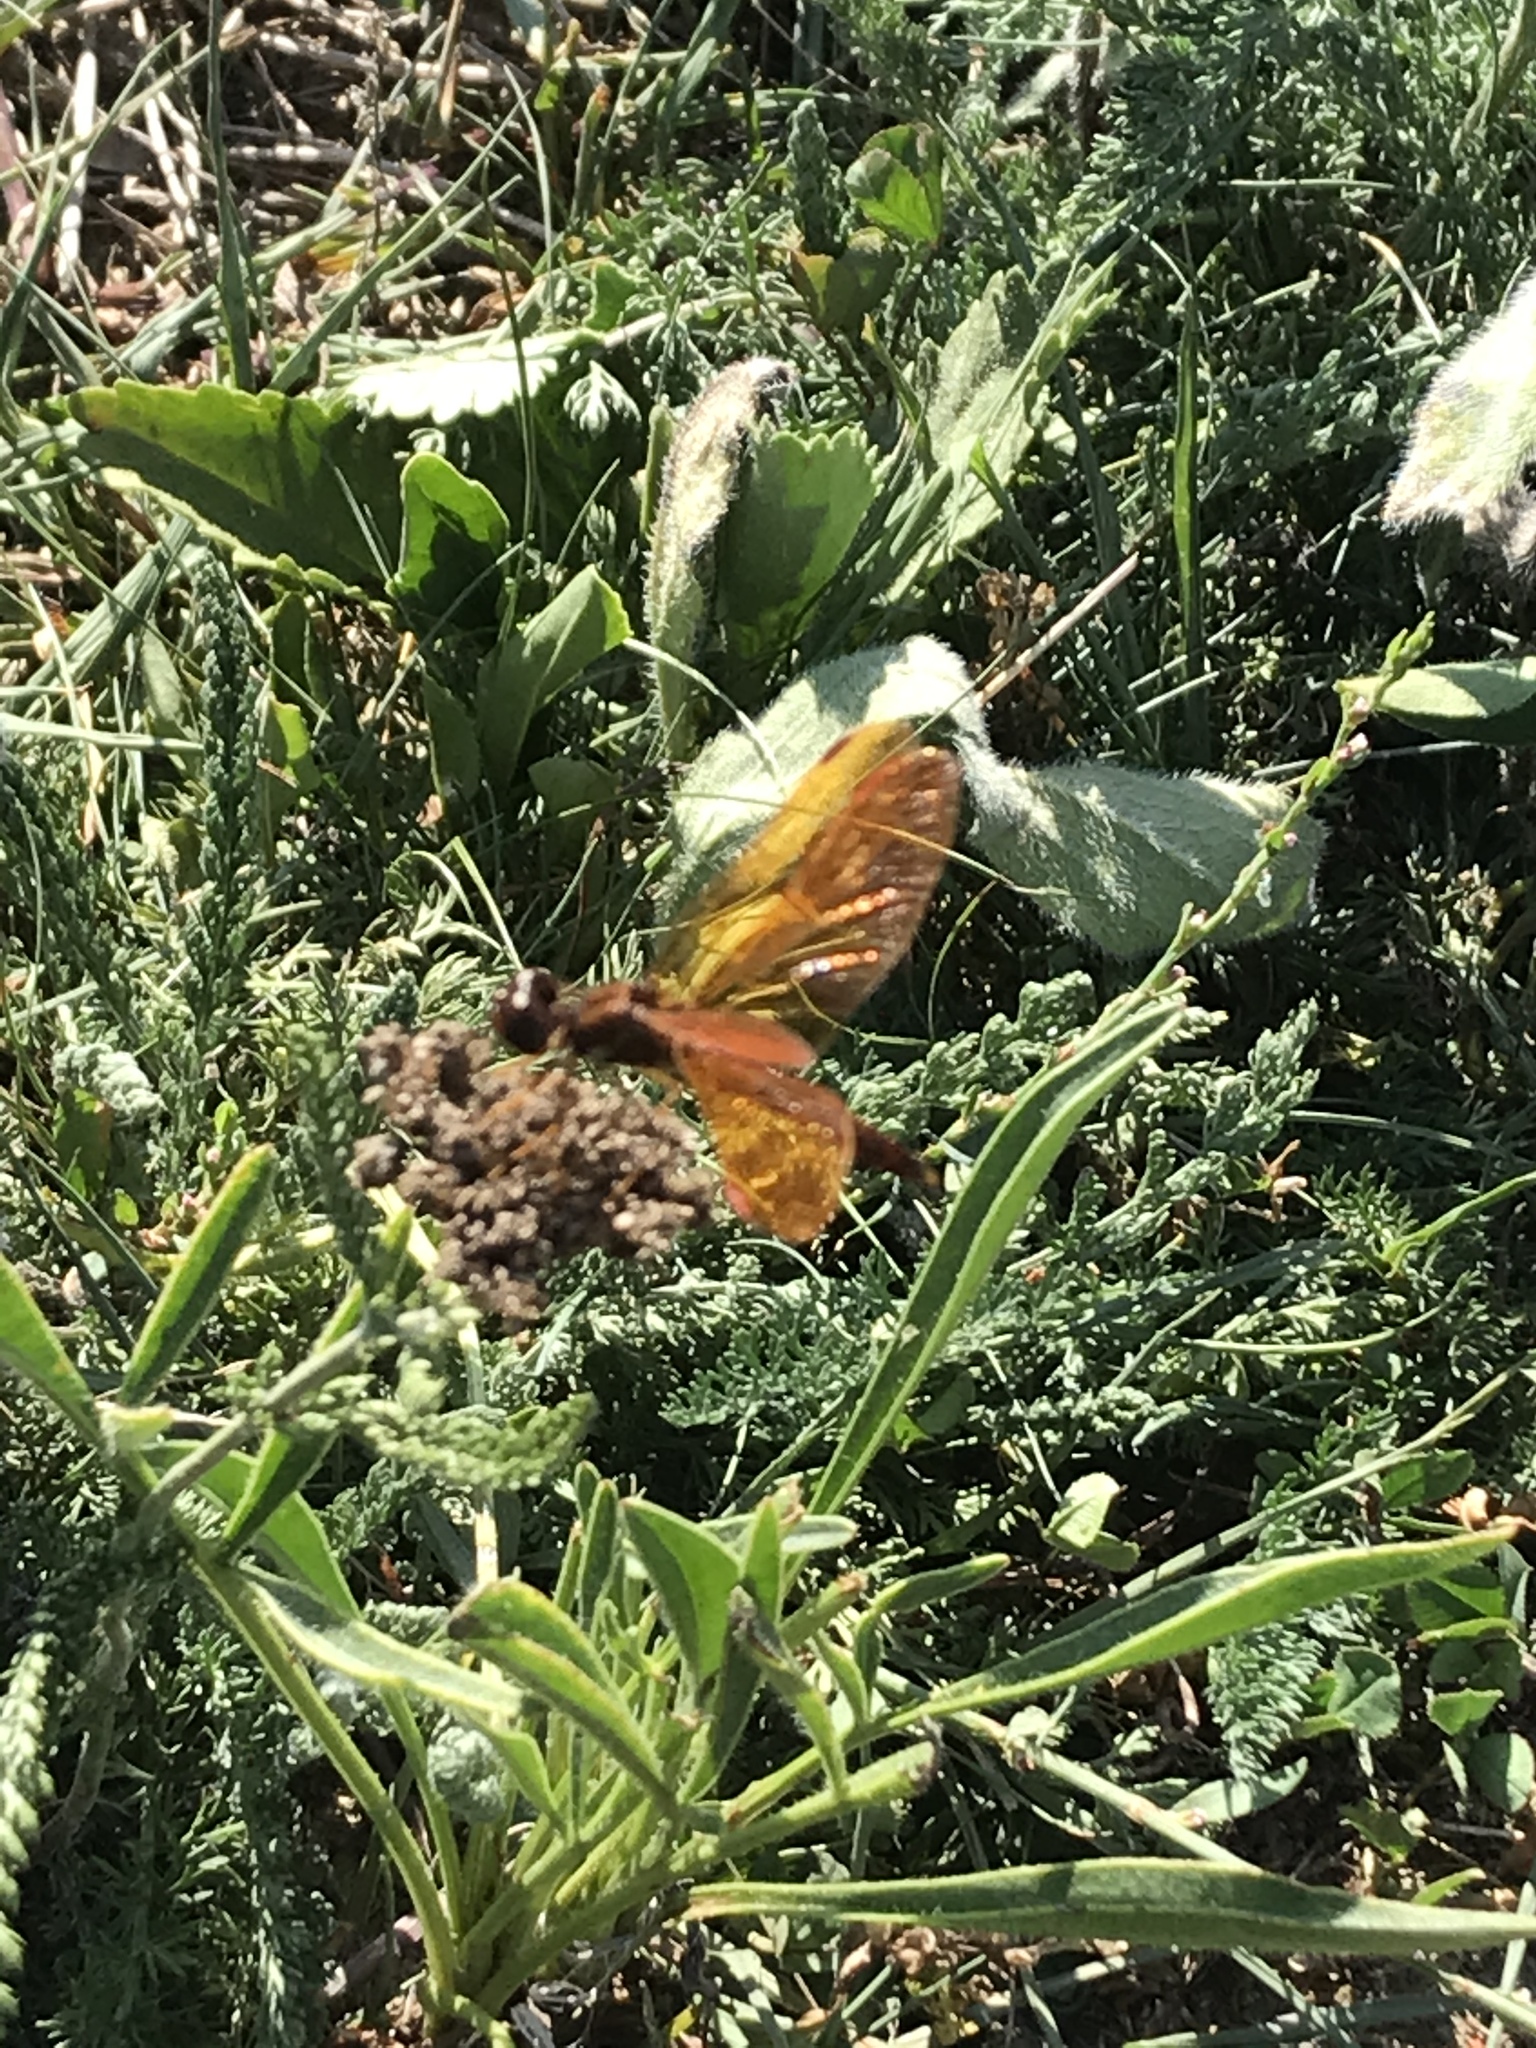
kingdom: Animalia
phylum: Arthropoda
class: Insecta
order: Odonata
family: Libellulidae
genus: Perithemis
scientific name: Perithemis tenera
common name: Eastern amberwing
